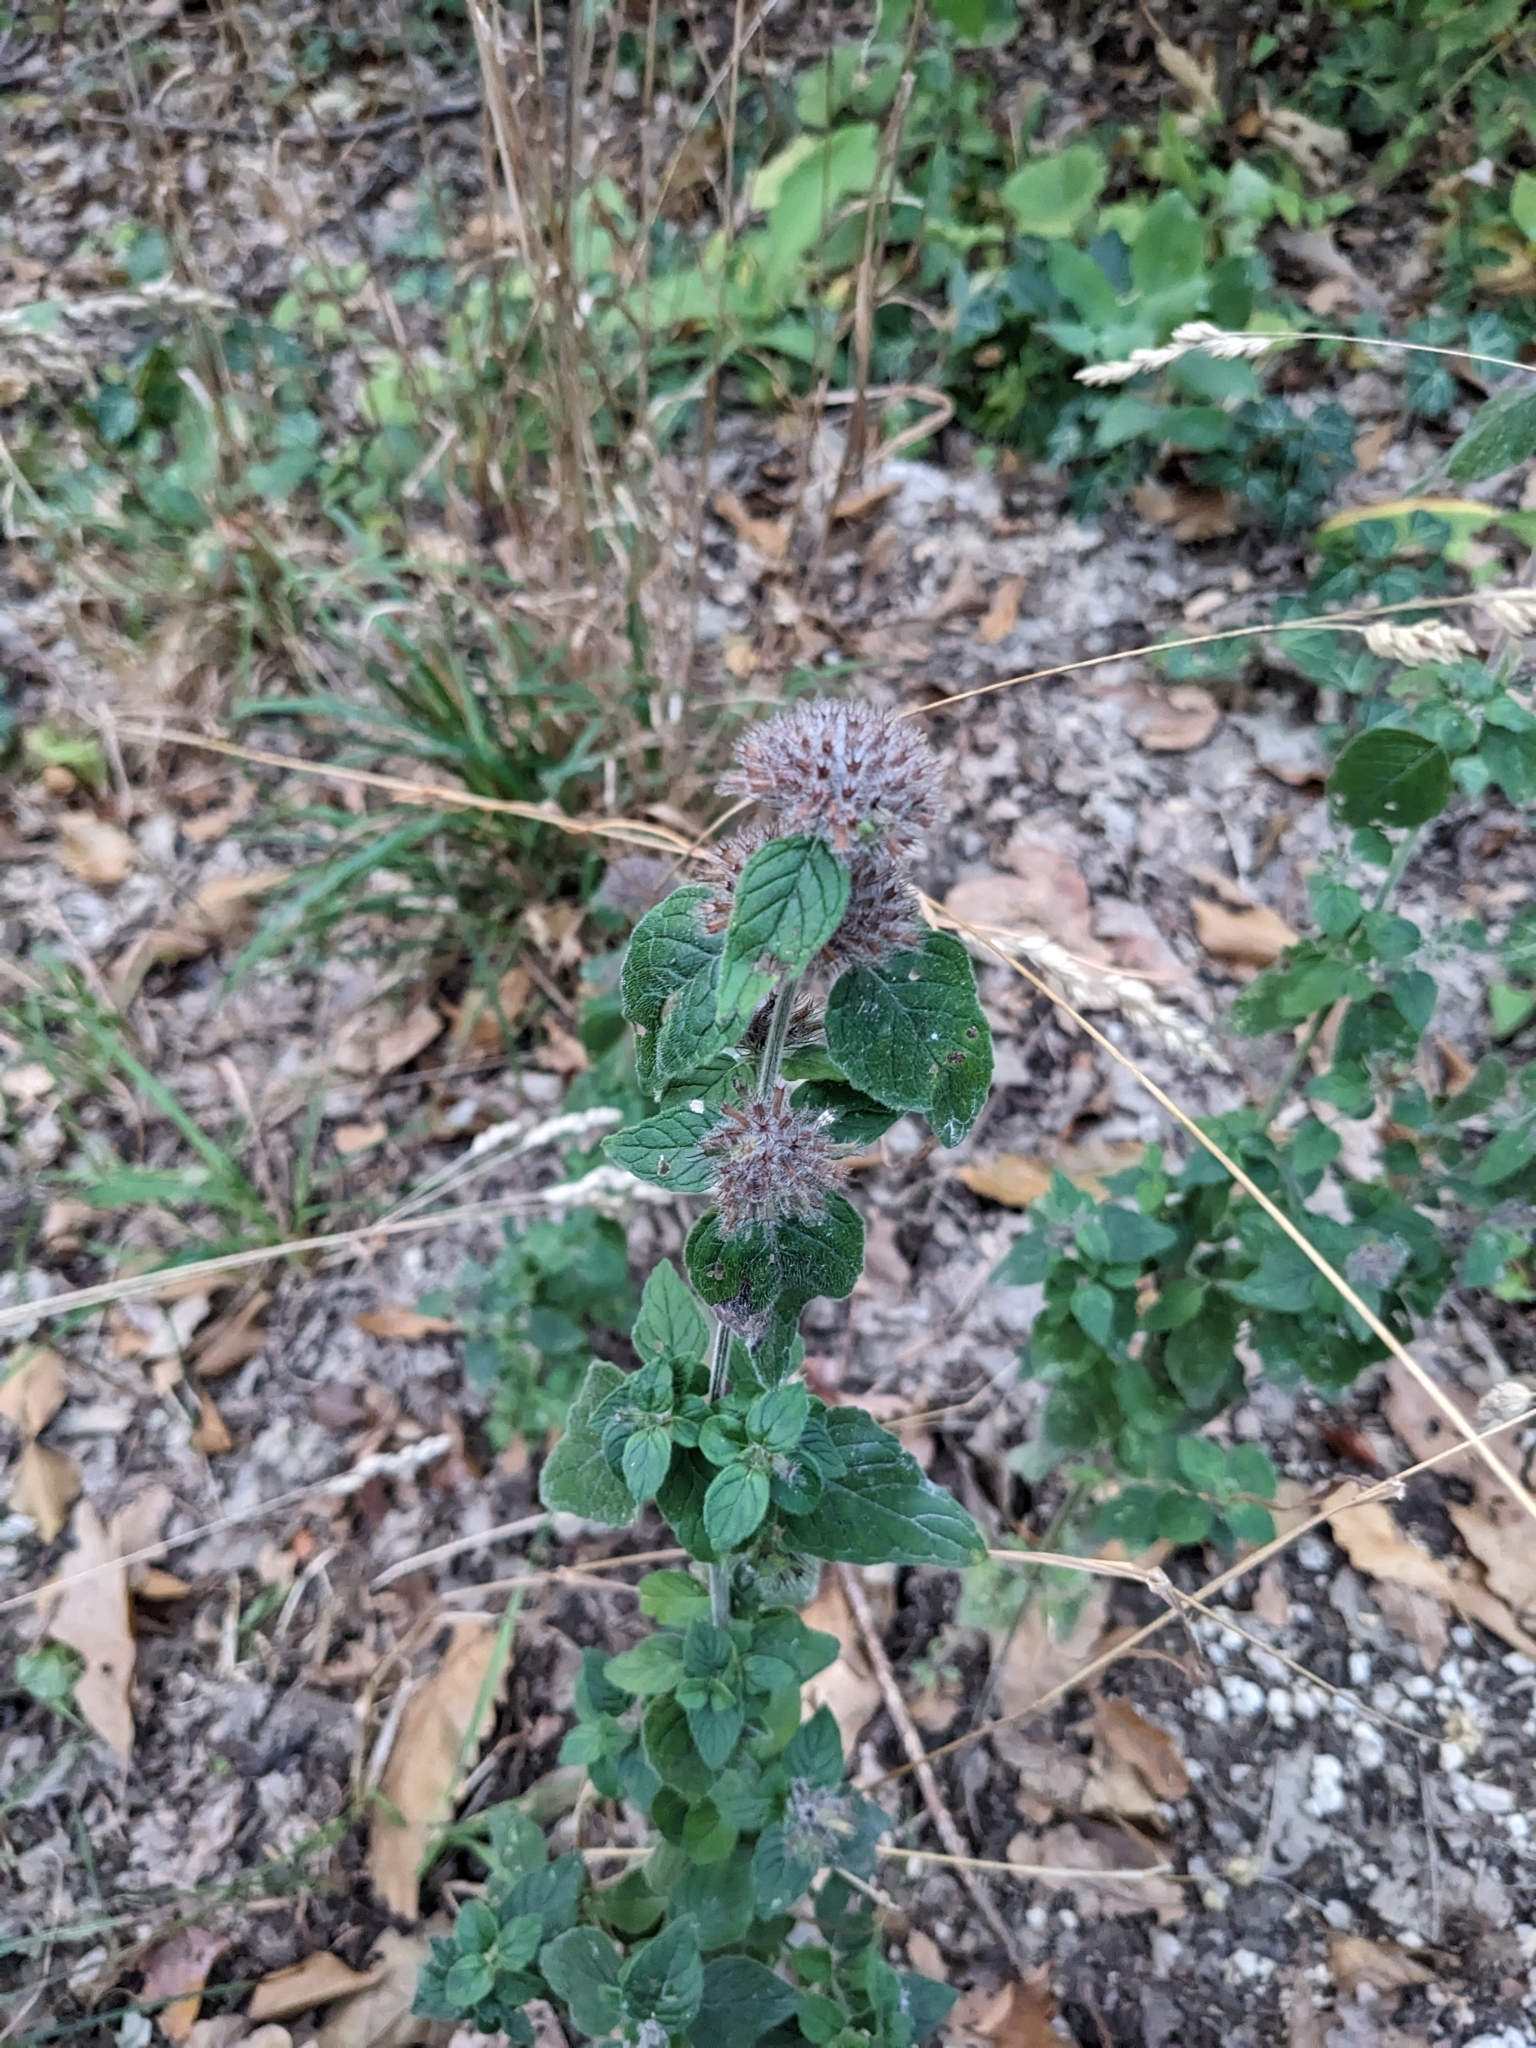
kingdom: Plantae
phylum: Tracheophyta
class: Magnoliopsida
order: Lamiales
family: Lamiaceae
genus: Clinopodium
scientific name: Clinopodium vulgare
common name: Wild basil
